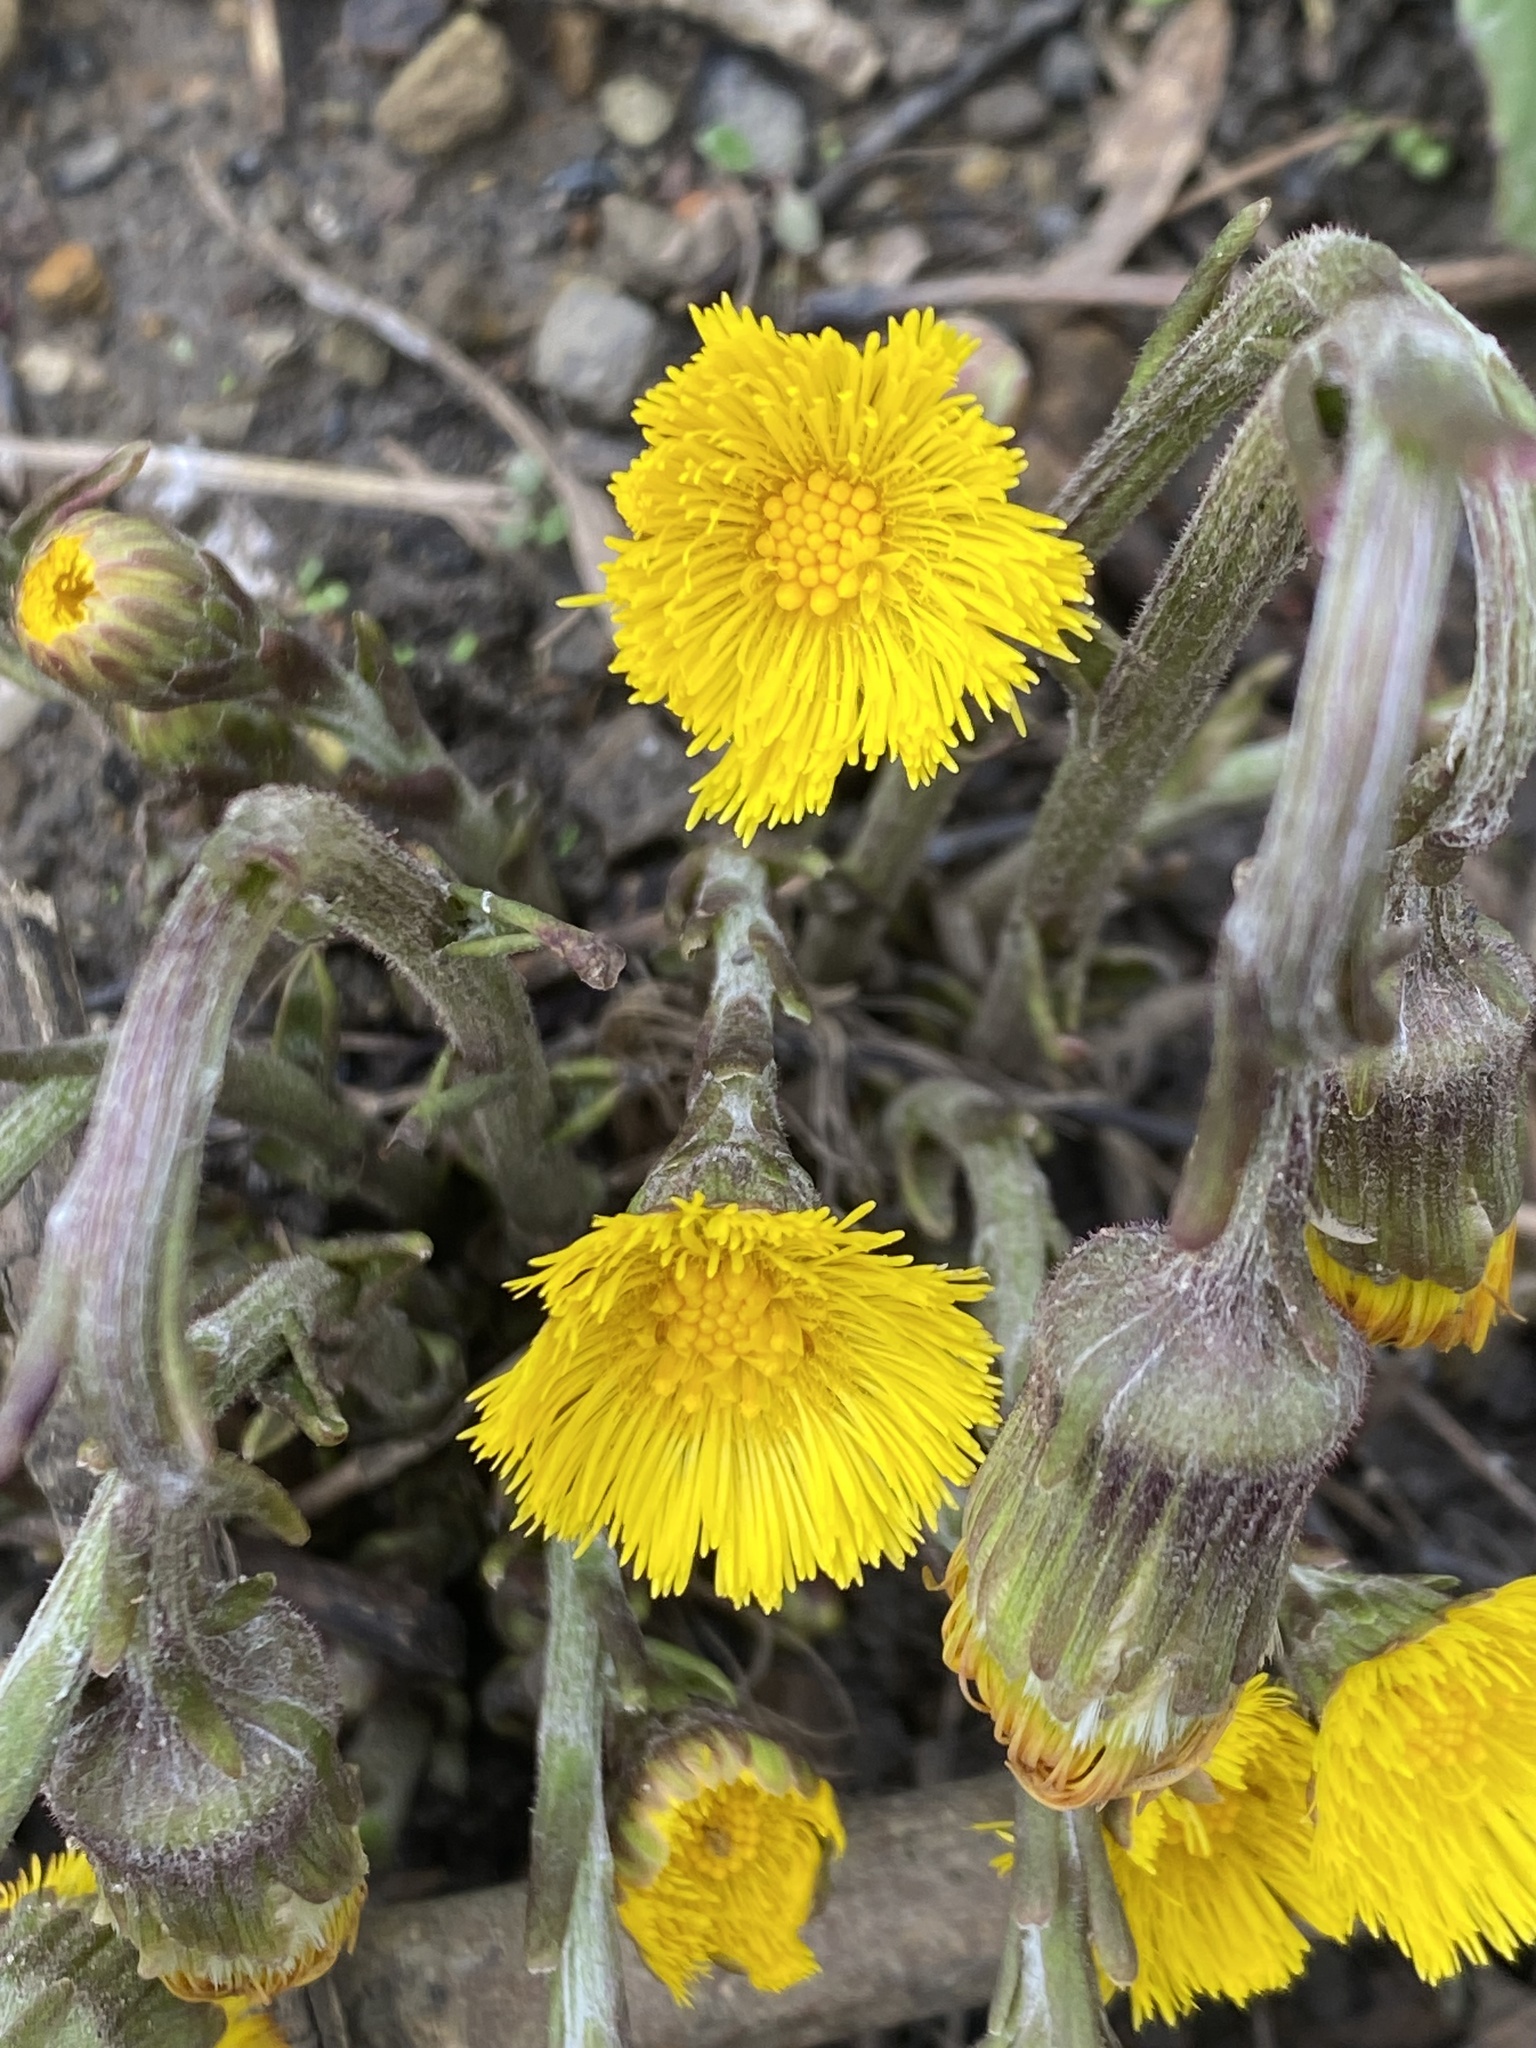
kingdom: Plantae
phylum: Tracheophyta
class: Magnoliopsida
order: Asterales
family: Asteraceae
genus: Tussilago
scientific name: Tussilago farfara
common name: Coltsfoot
